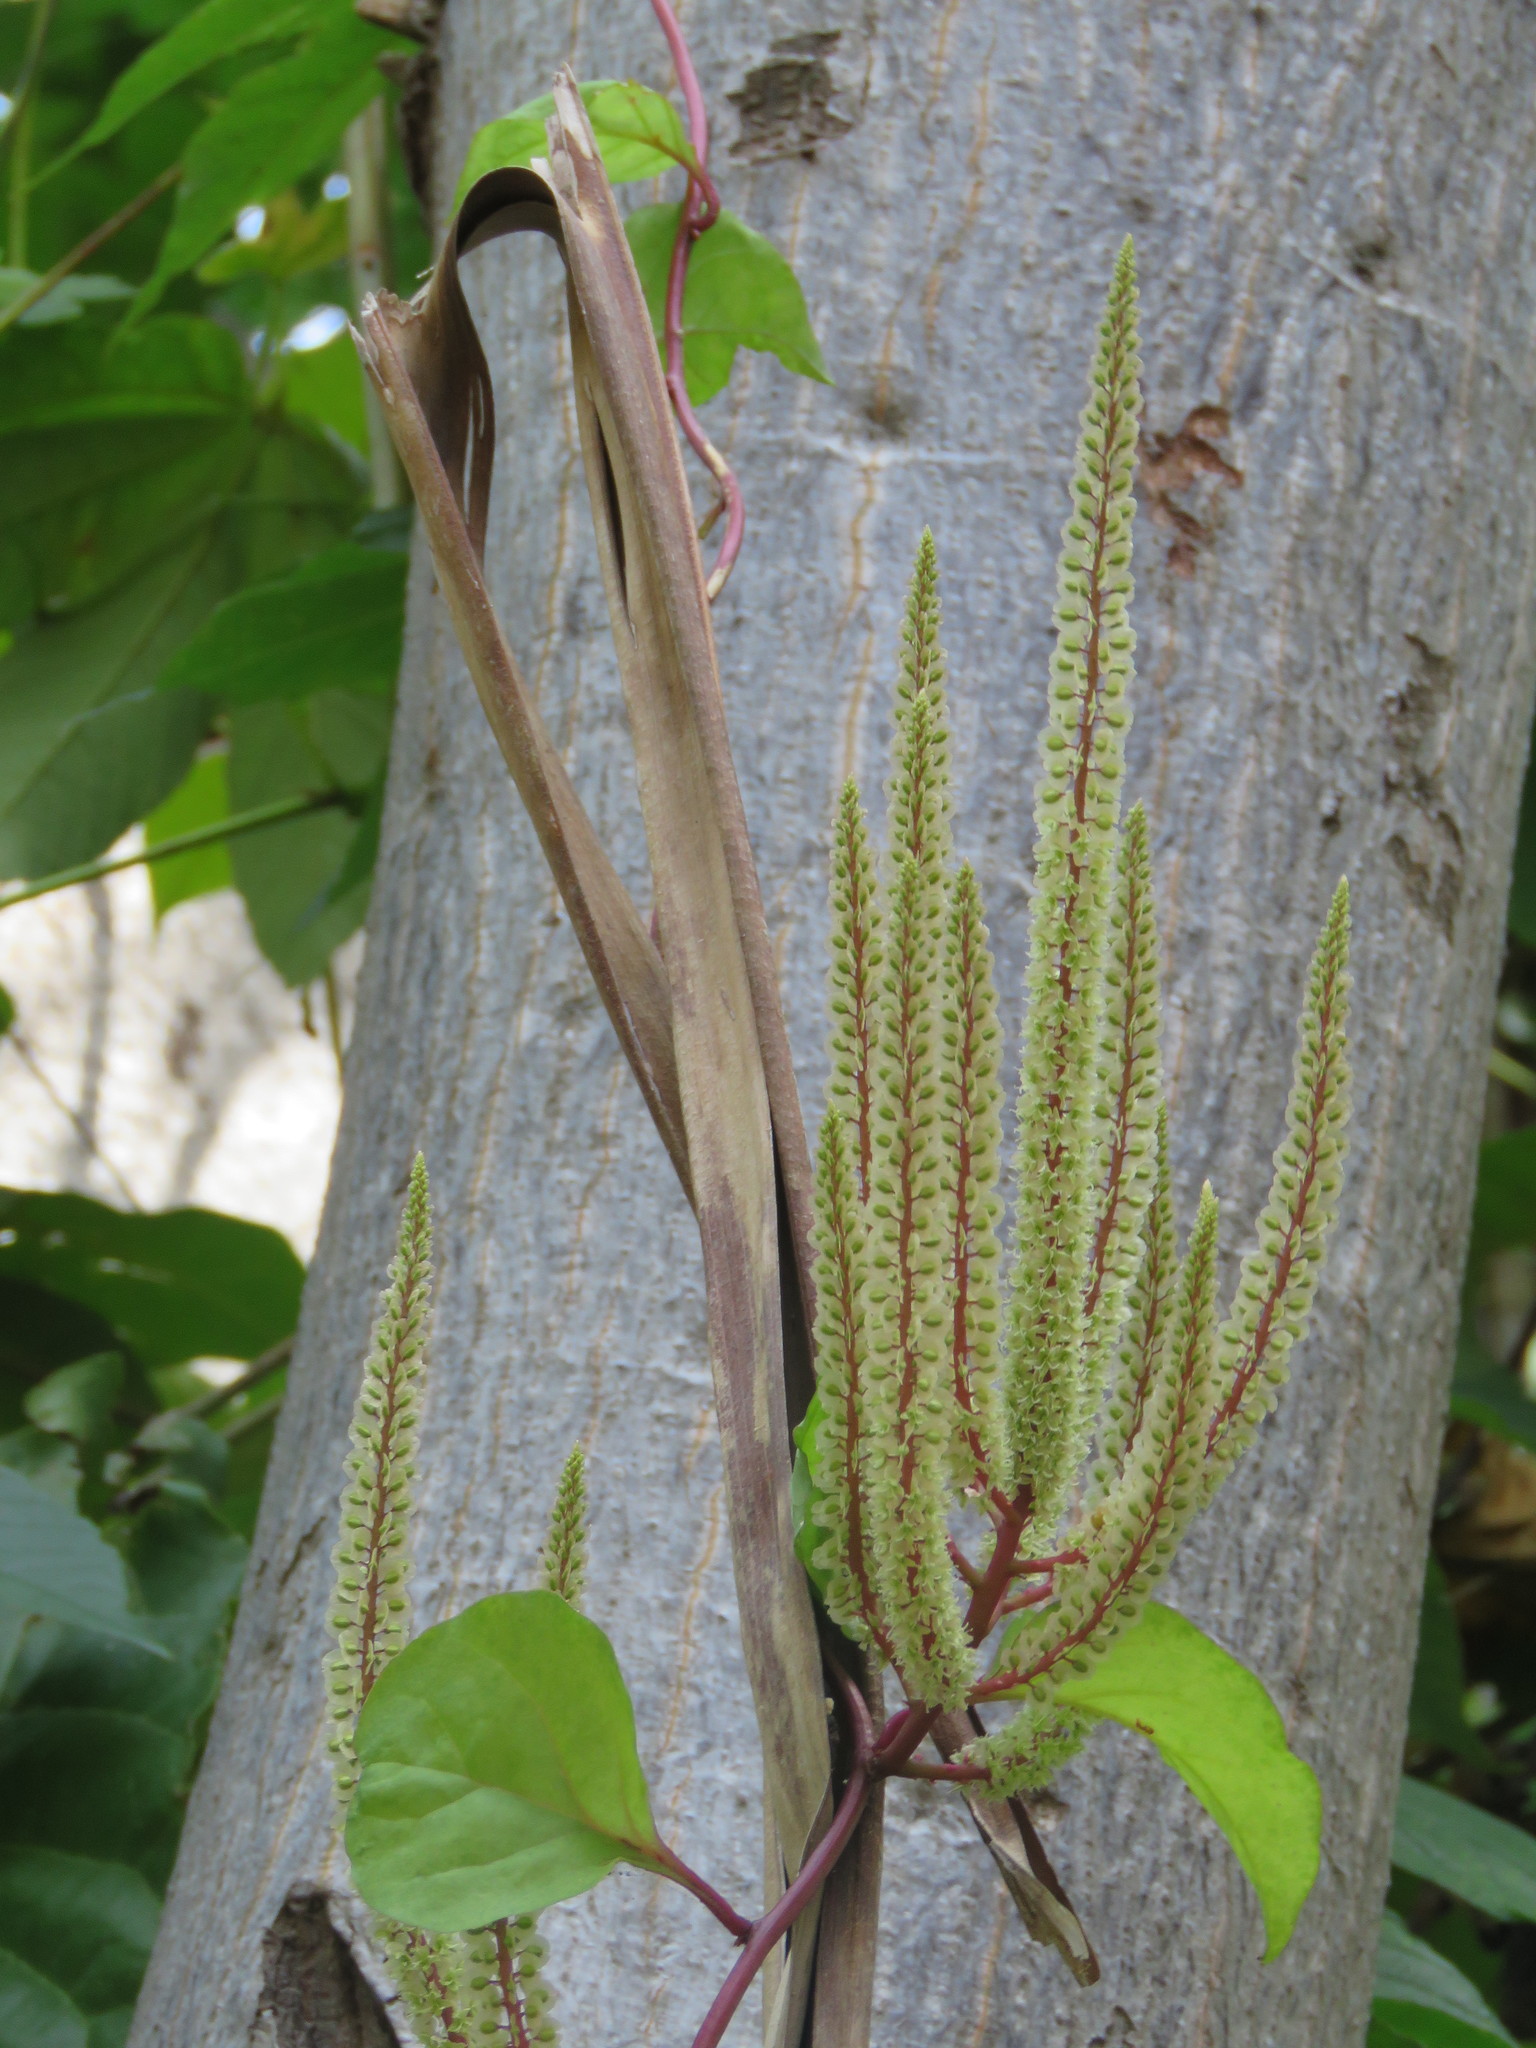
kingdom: Plantae
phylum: Tracheophyta
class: Magnoliopsida
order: Caryophyllales
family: Basellaceae
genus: Anredera
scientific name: Anredera vesicaria
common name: Sacasile
